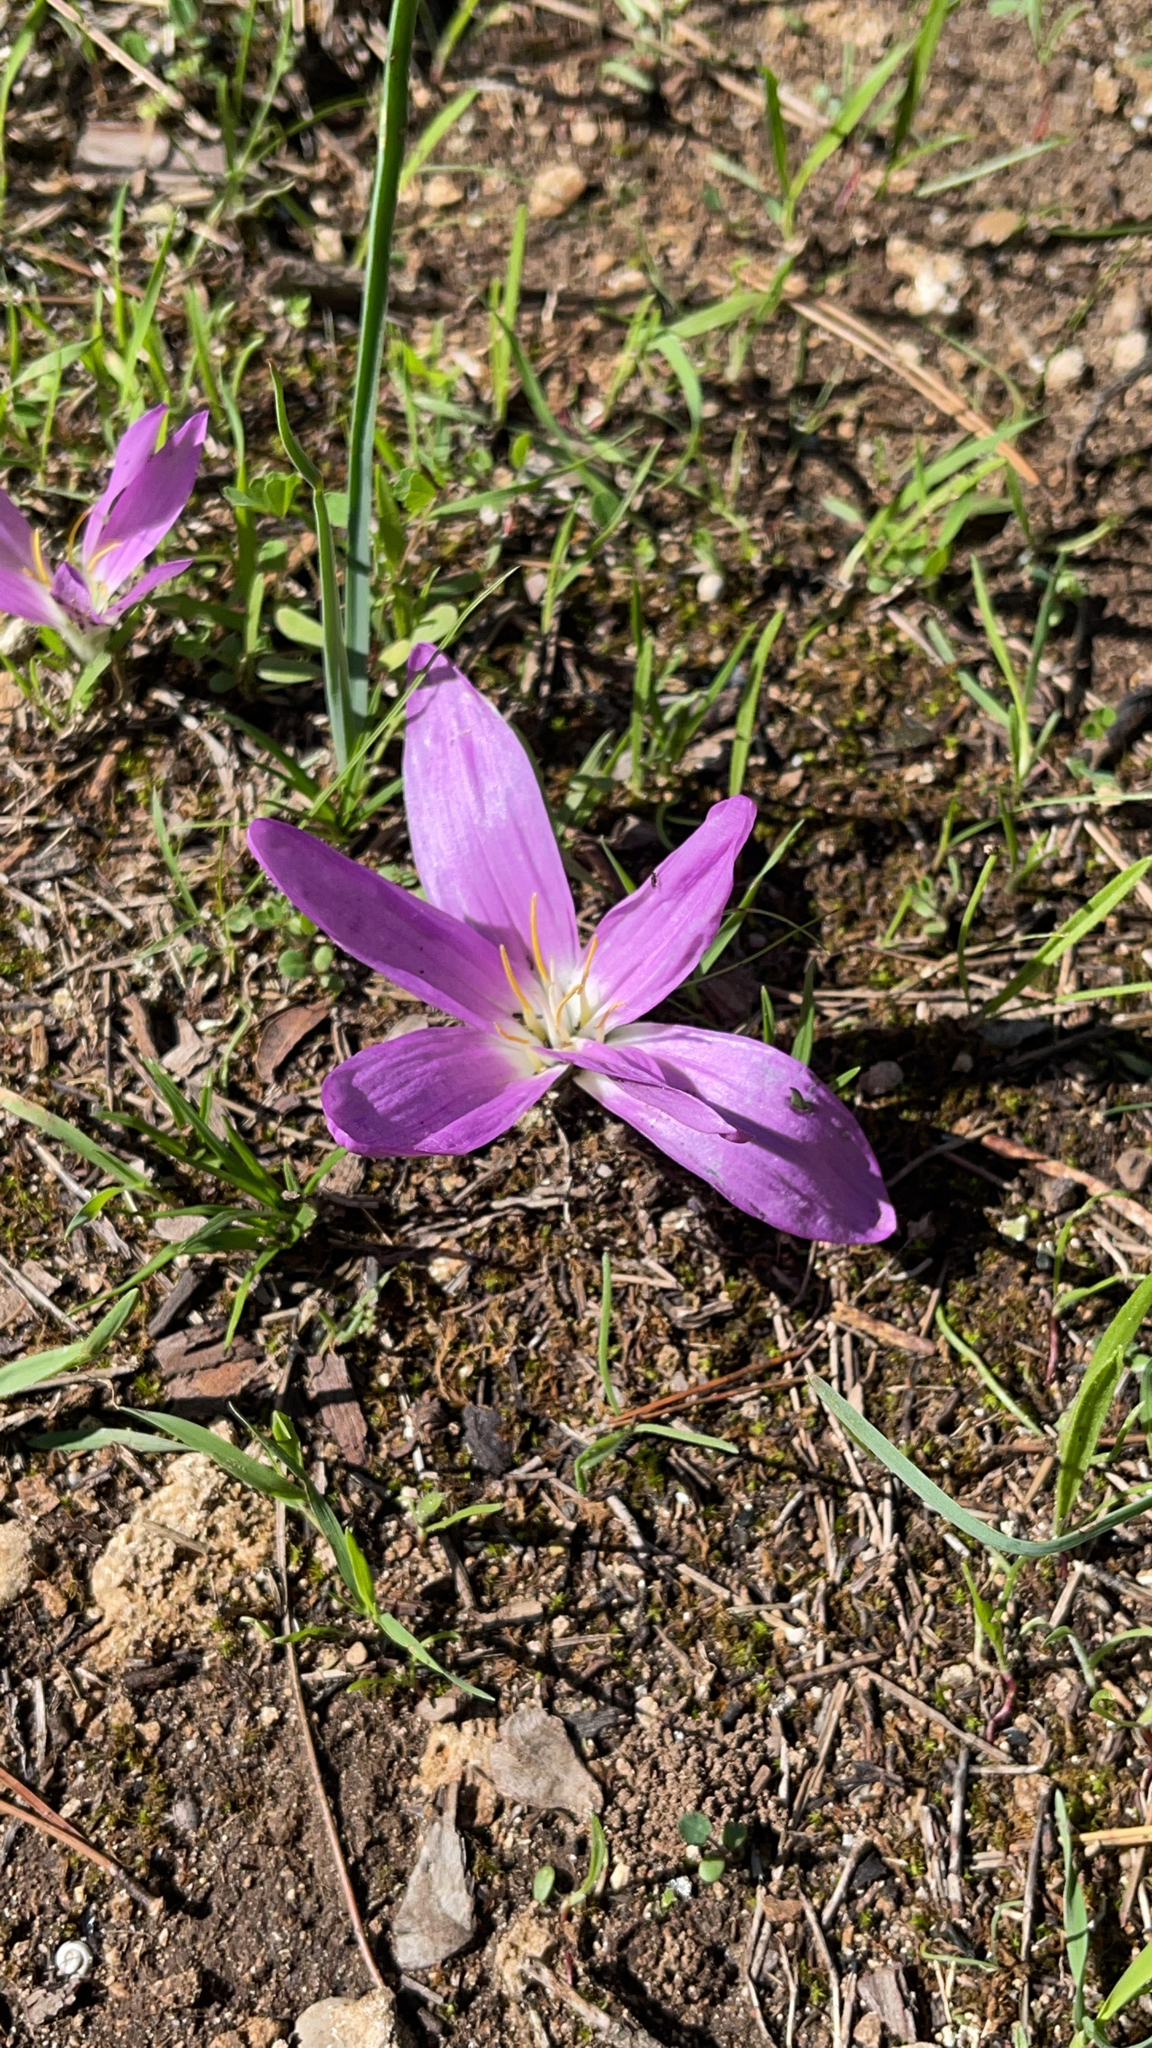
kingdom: Plantae
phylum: Tracheophyta
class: Liliopsida
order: Liliales
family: Colchicaceae
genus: Colchicum
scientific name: Colchicum filifolium
